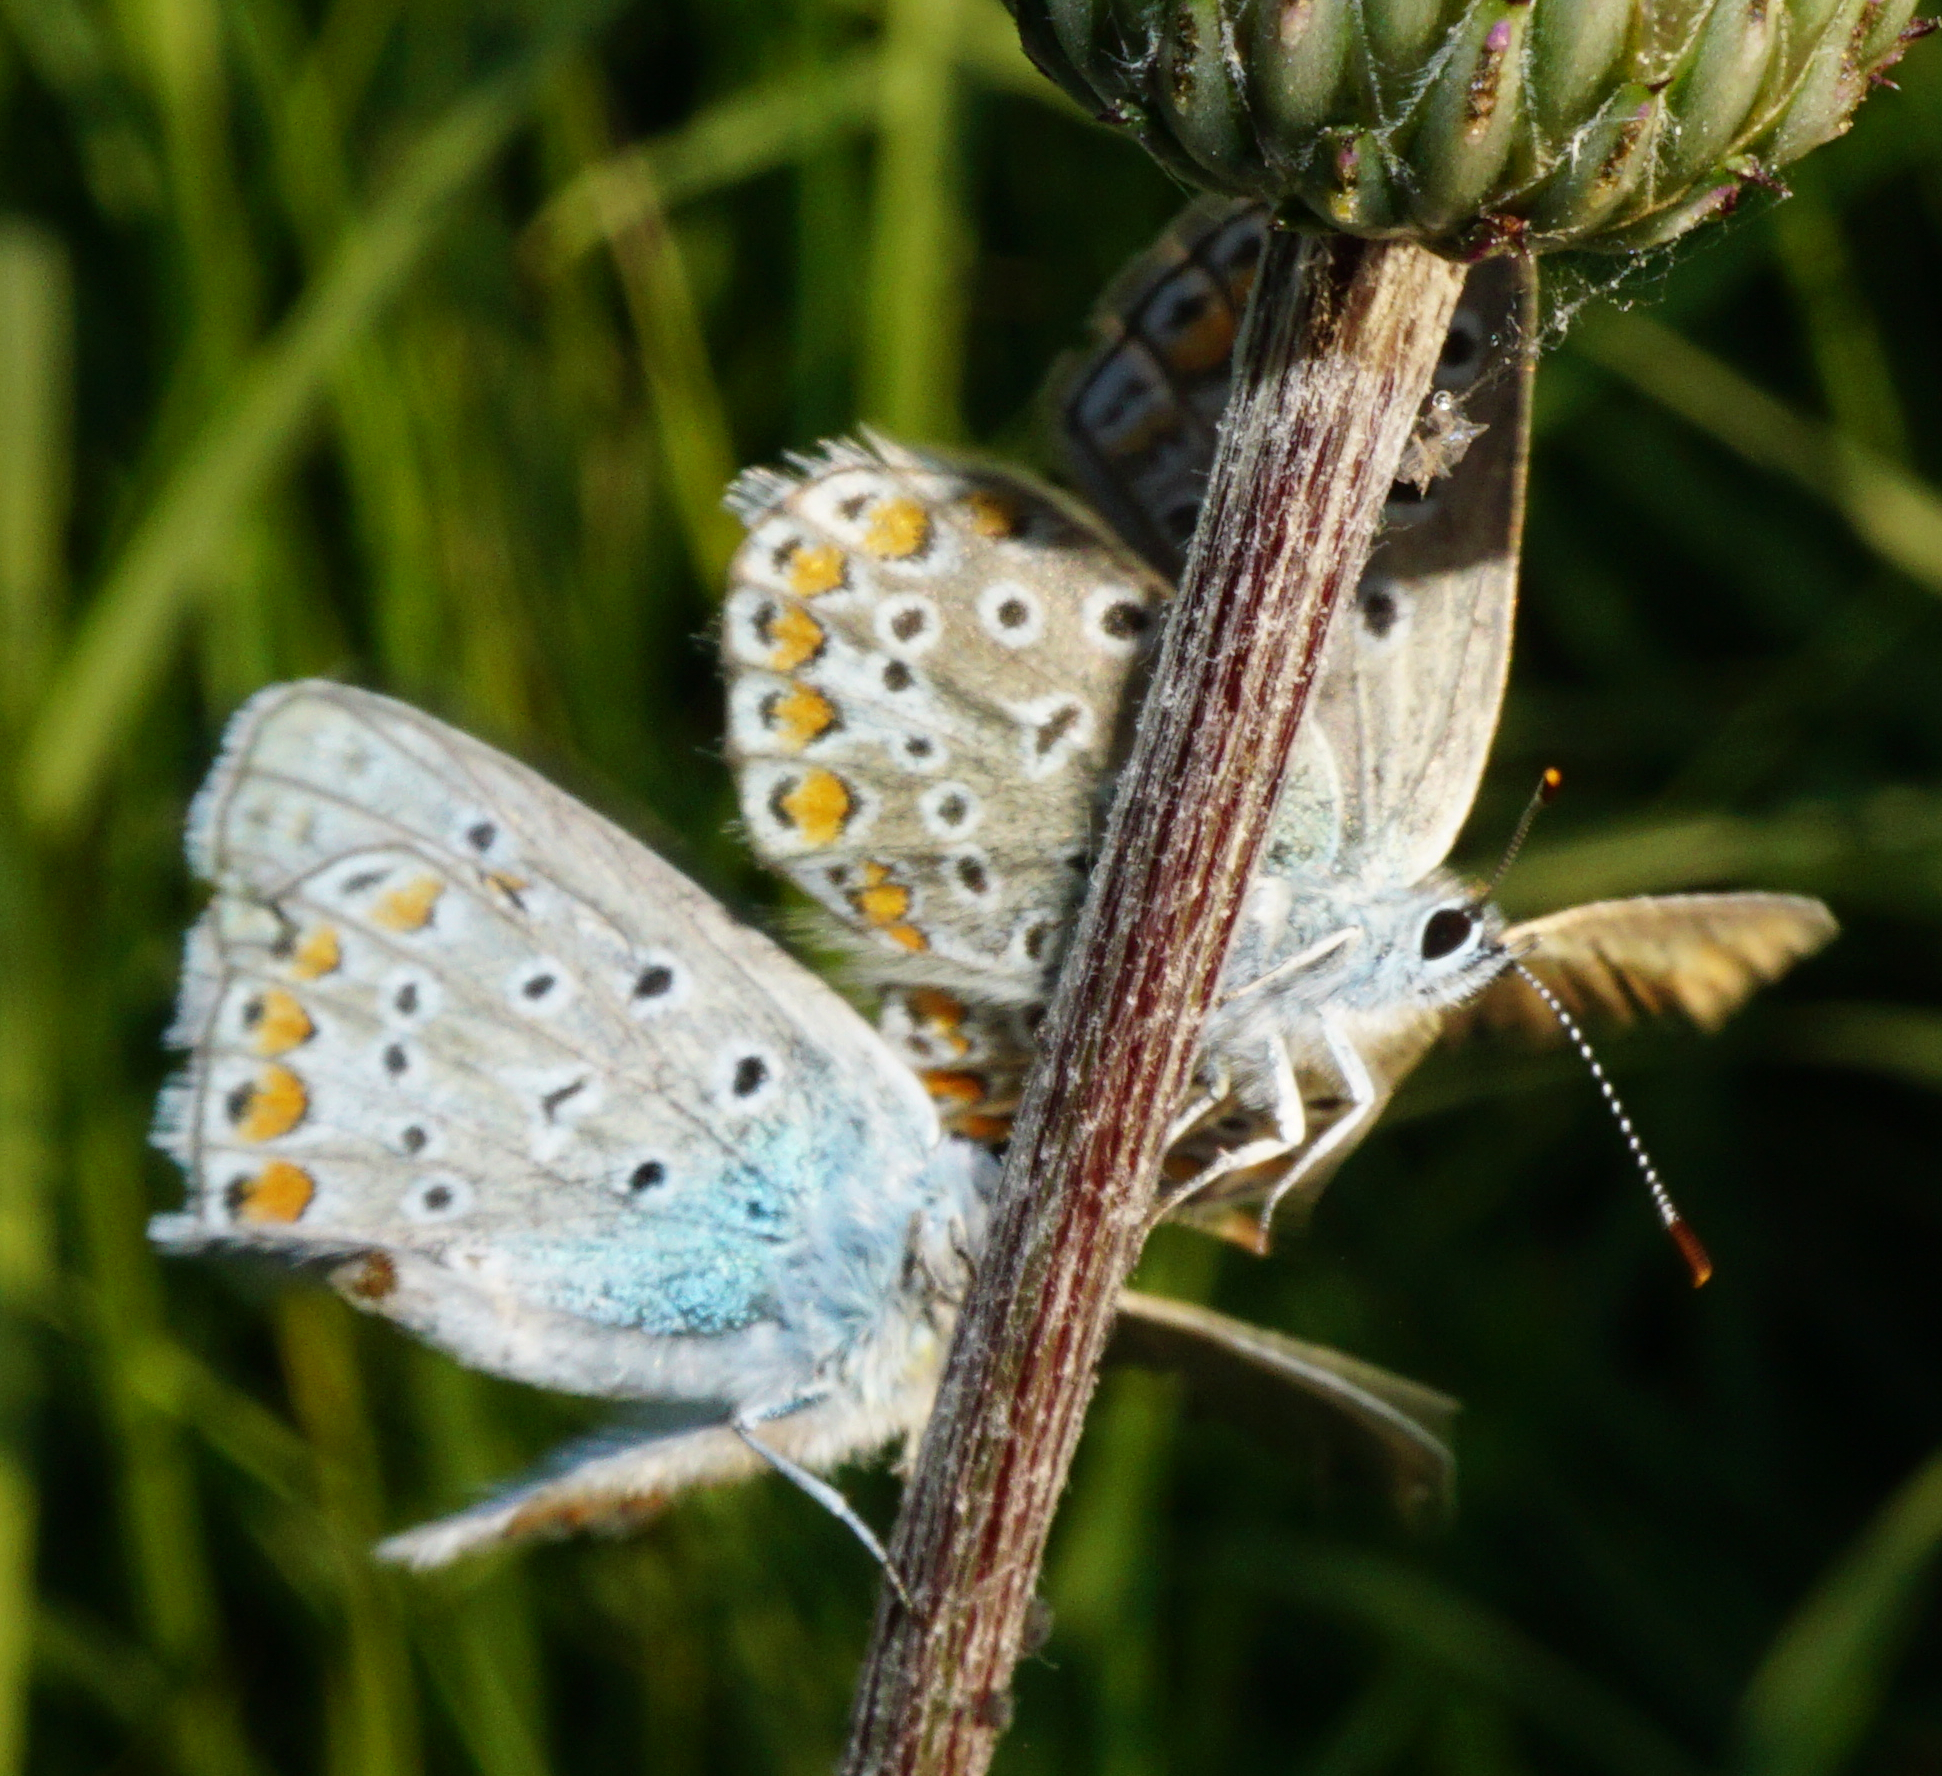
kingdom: Animalia
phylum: Arthropoda
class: Insecta
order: Lepidoptera
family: Lycaenidae
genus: Polyommatus
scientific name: Polyommatus icarus
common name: Common blue
